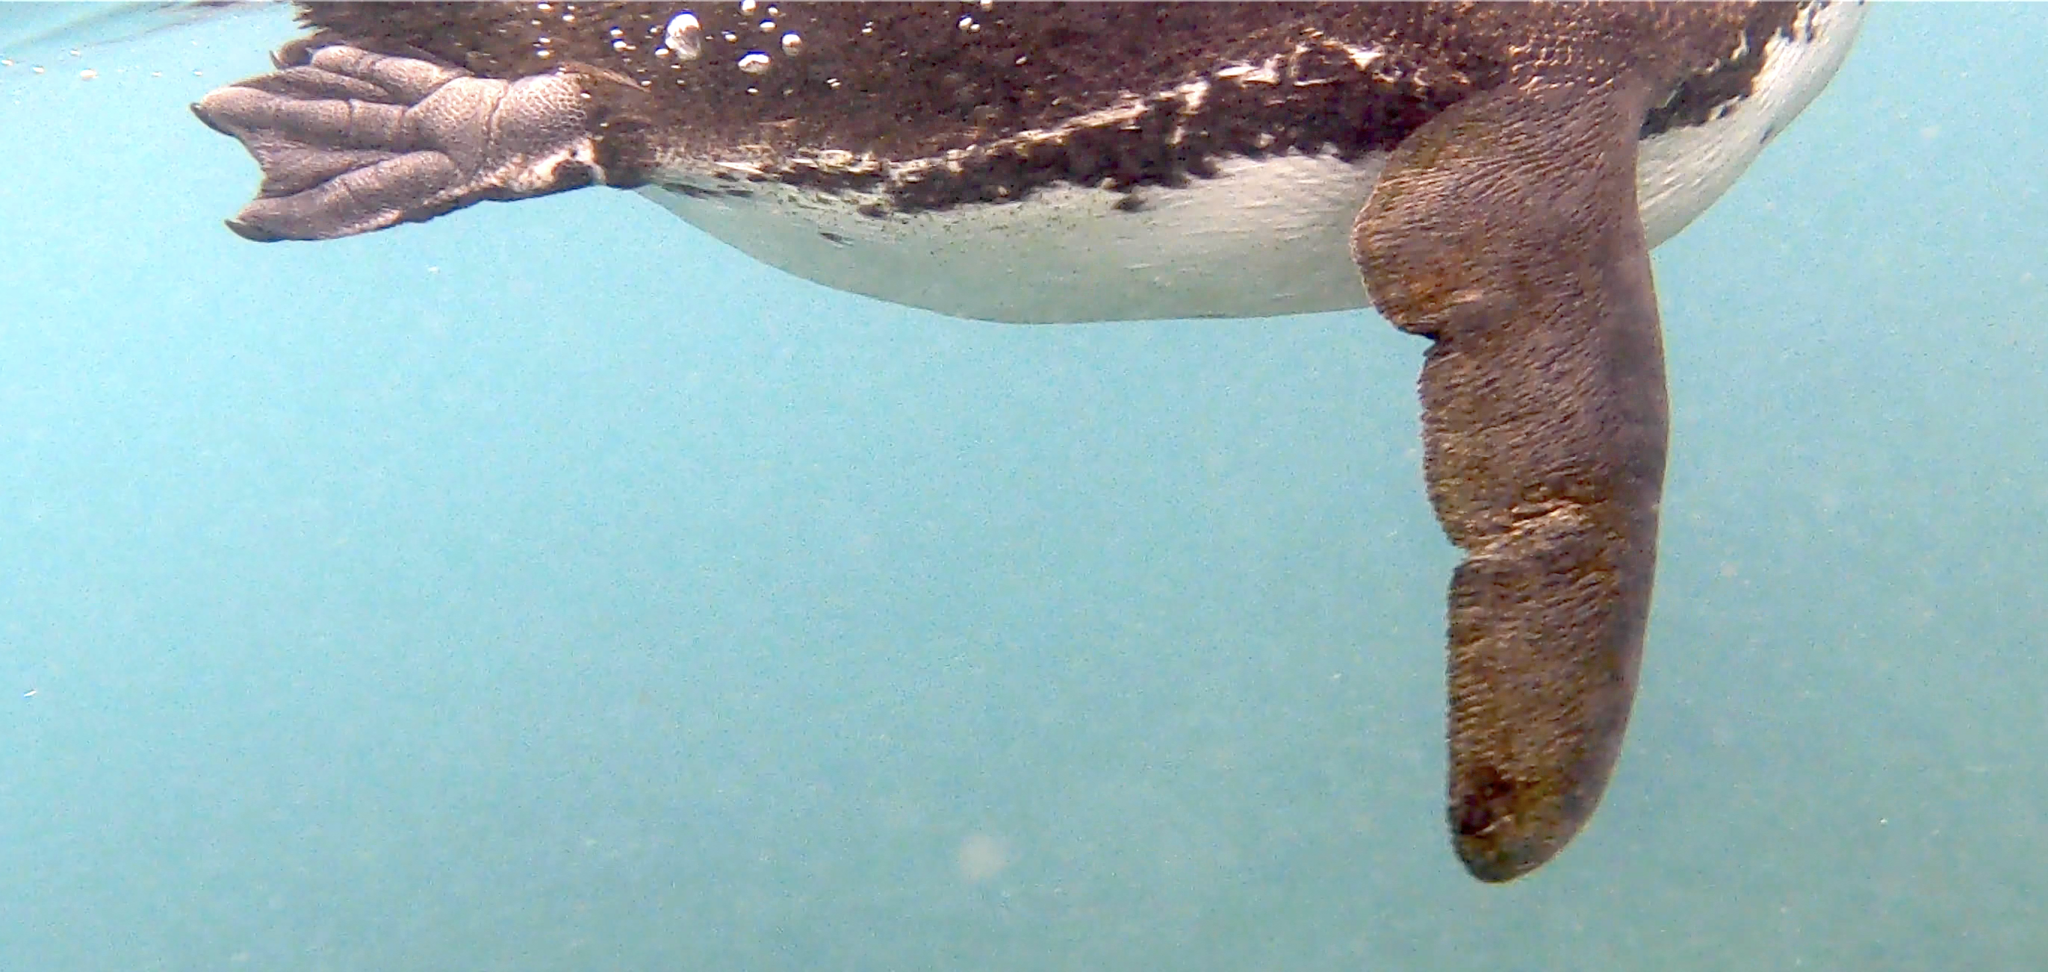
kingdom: Animalia
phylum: Chordata
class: Aves
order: Sphenisciformes
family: Spheniscidae
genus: Spheniscus
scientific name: Spheniscus mendiculus
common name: Galapagos penguin
